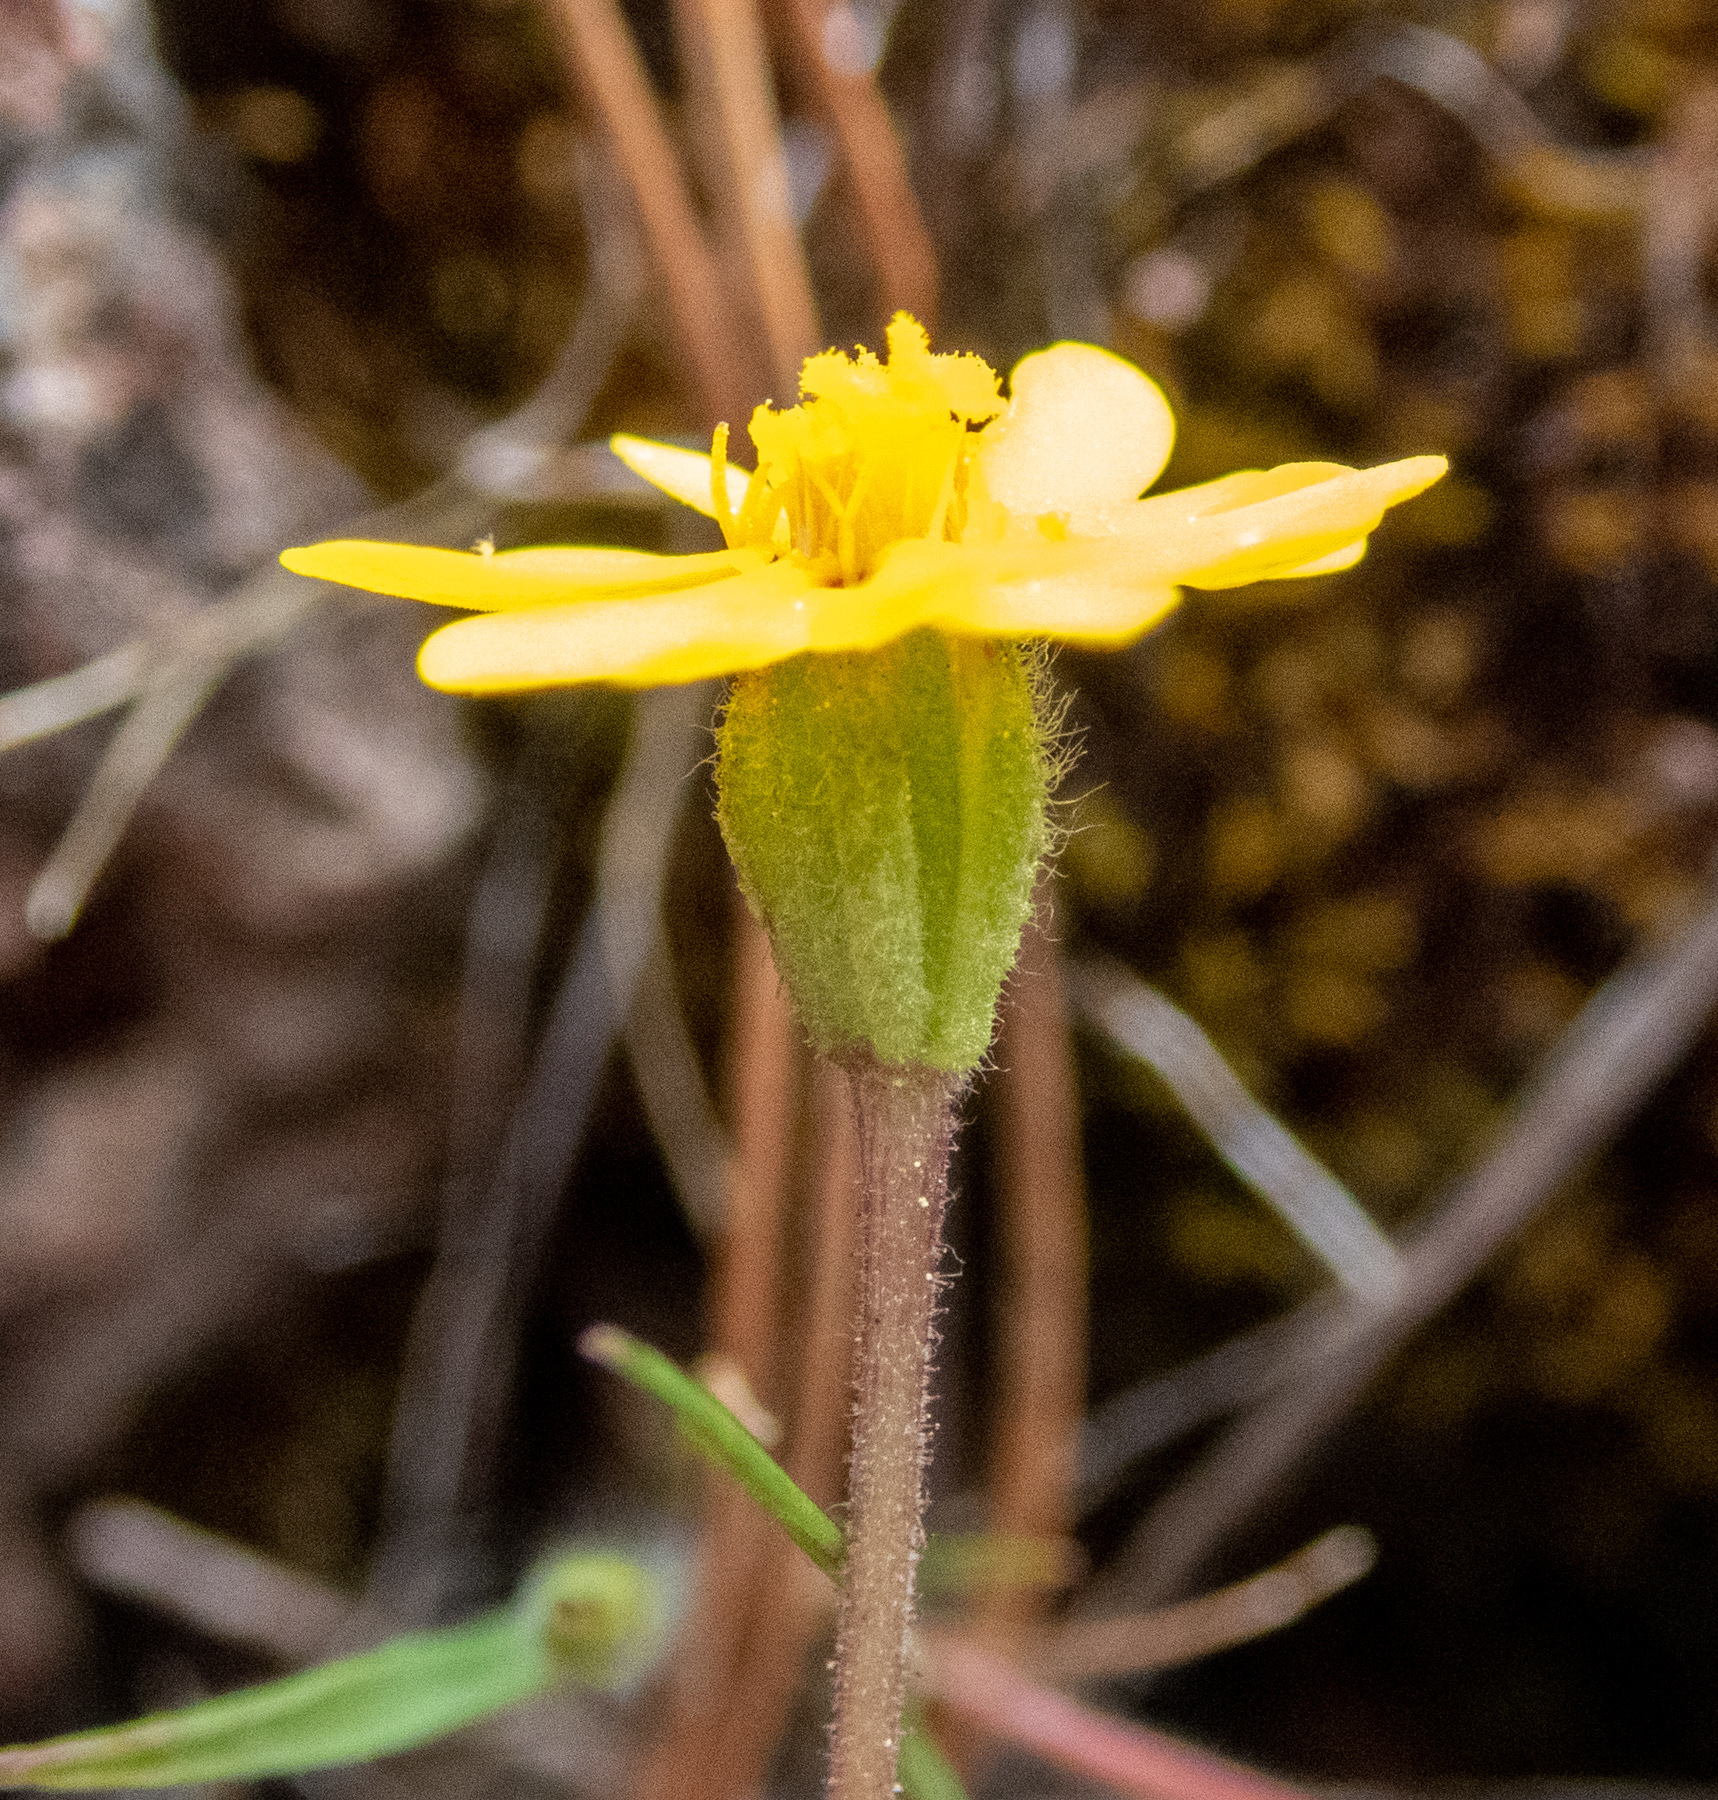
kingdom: Plantae
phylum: Tracheophyta
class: Magnoliopsida
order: Asterales
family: Asteraceae
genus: Harmonia
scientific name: Harmonia nutans
